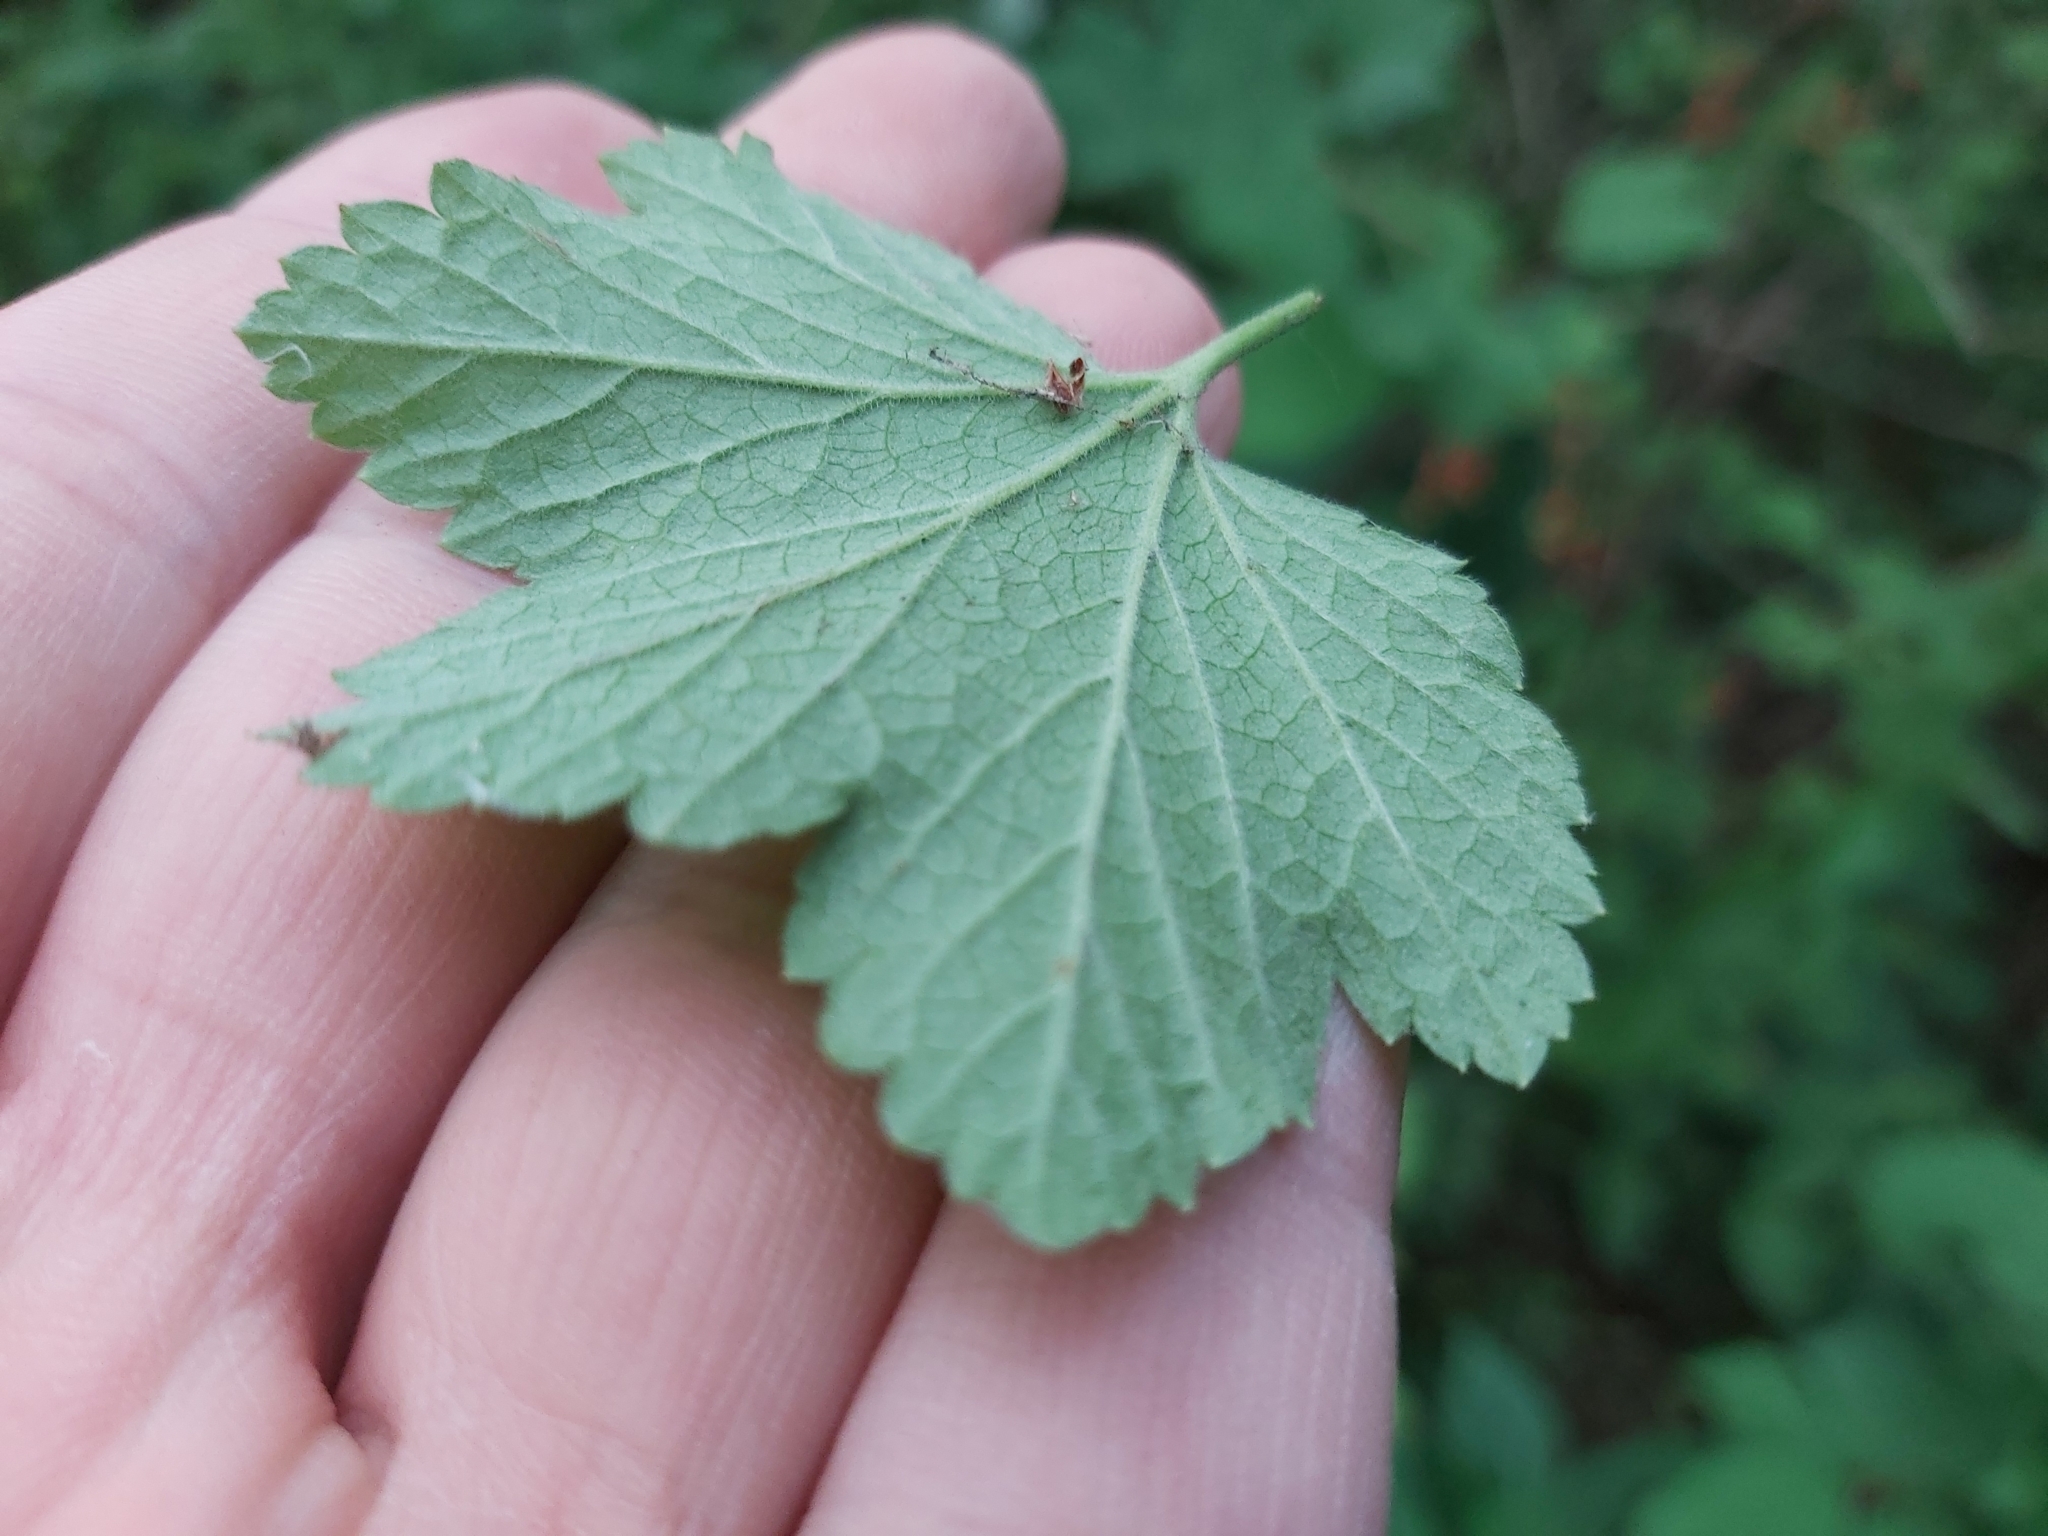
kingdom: Plantae
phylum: Tracheophyta
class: Magnoliopsida
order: Saxifragales
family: Grossulariaceae
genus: Ribes
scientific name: Ribes spicatum
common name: Downy currant
